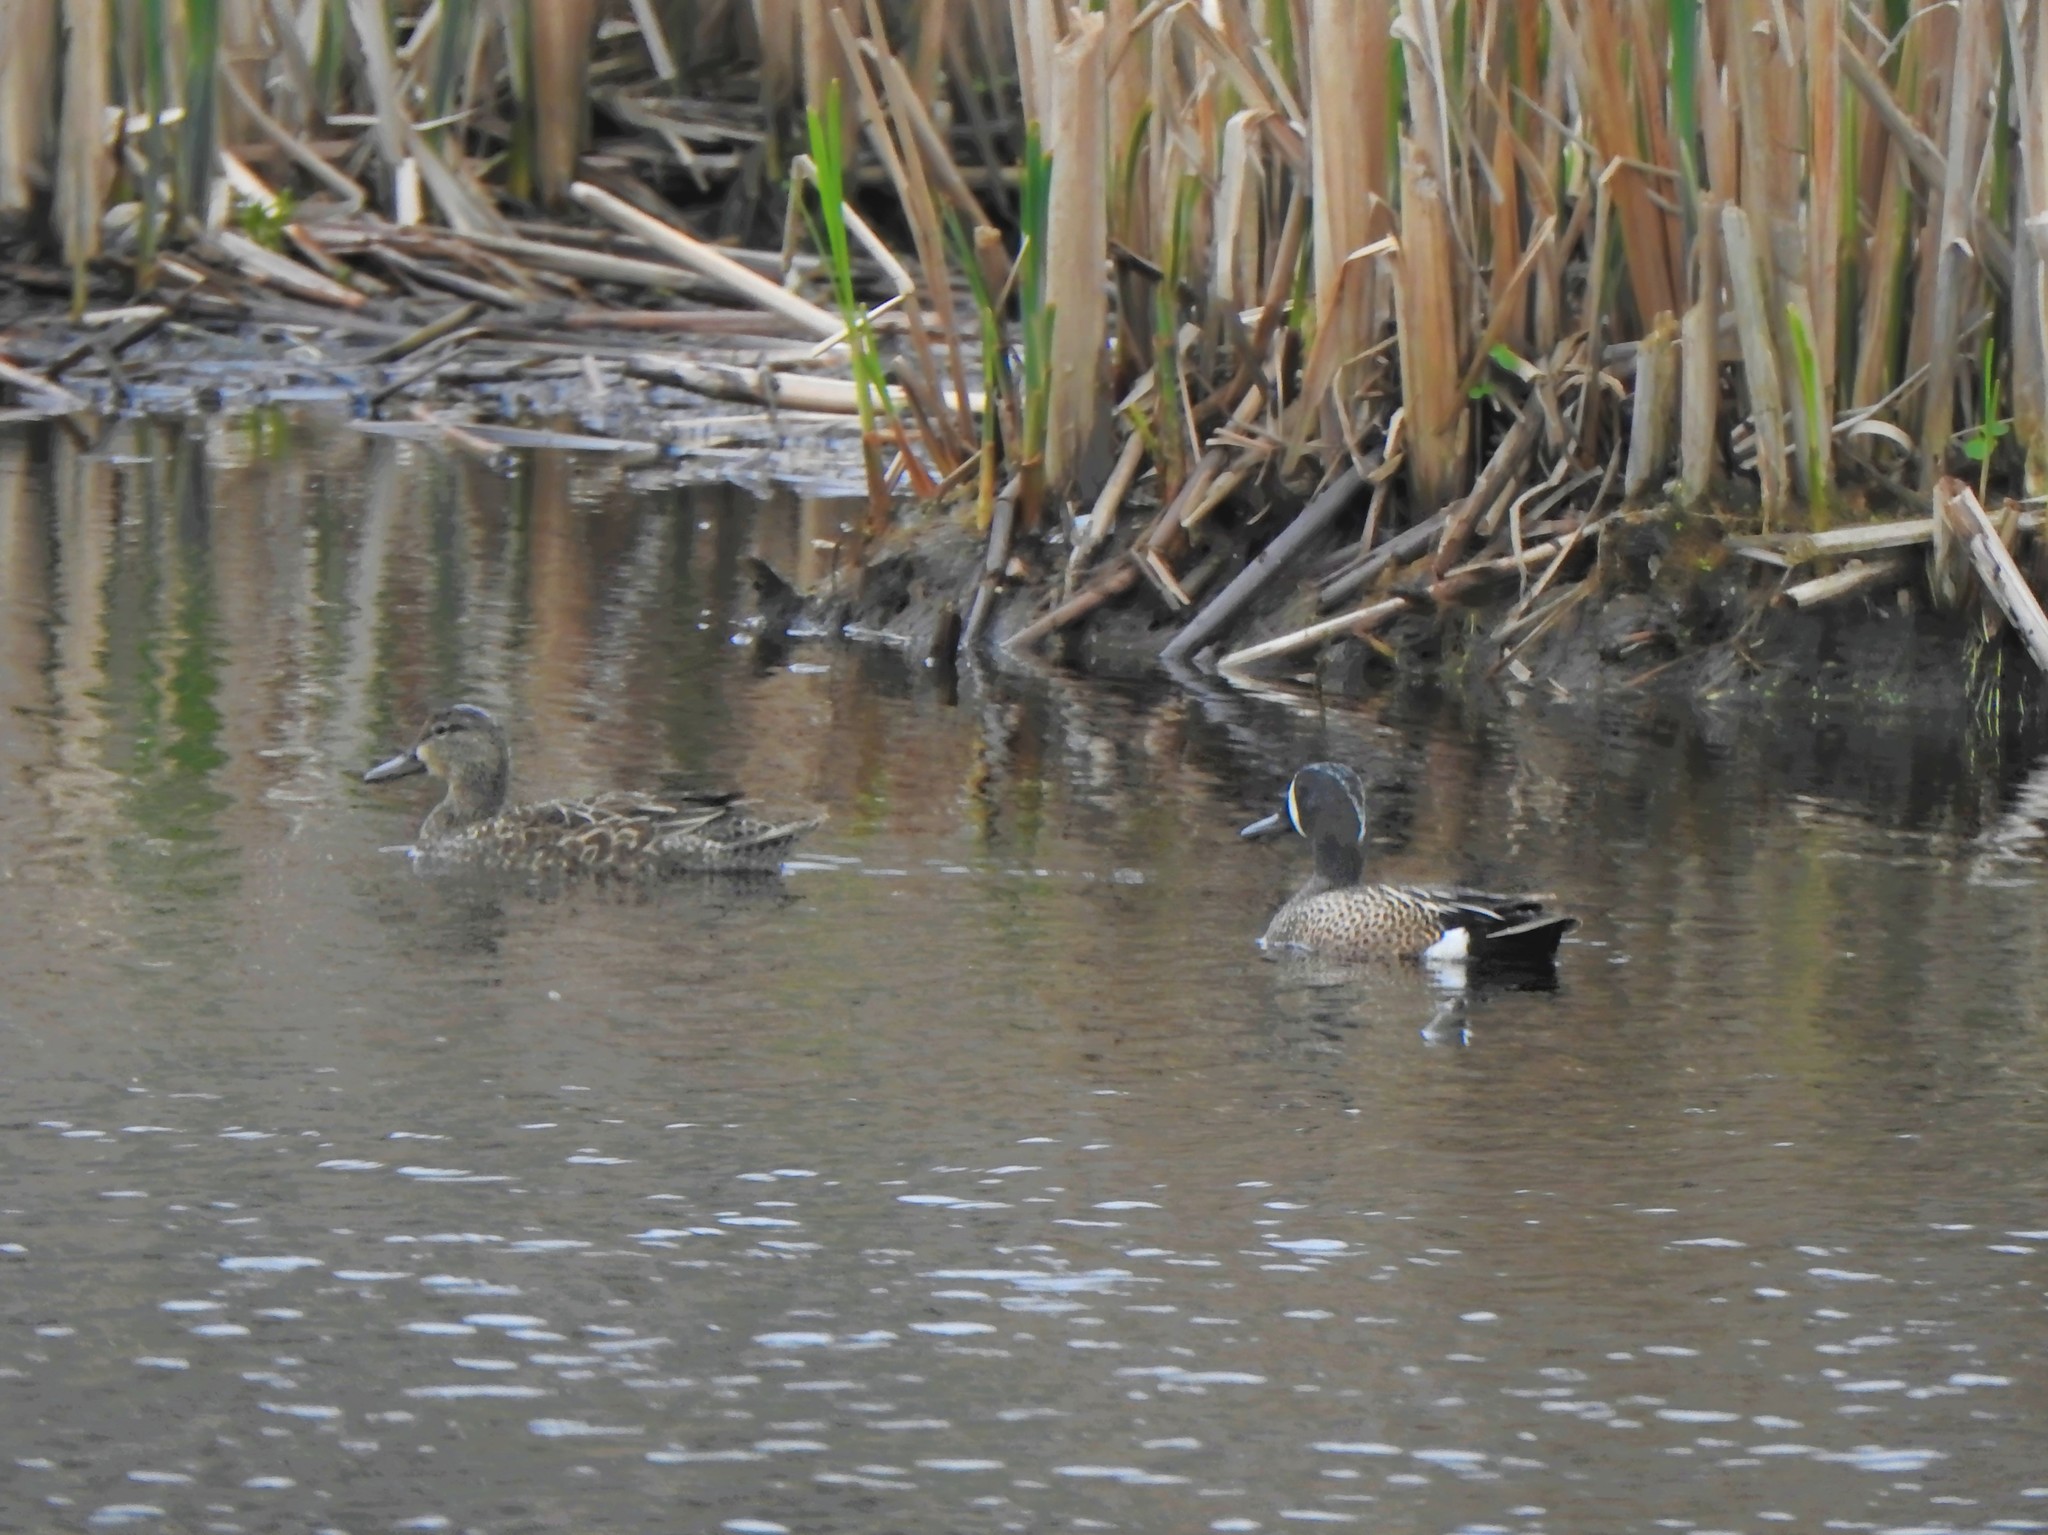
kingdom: Animalia
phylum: Chordata
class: Aves
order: Anseriformes
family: Anatidae
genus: Spatula
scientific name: Spatula discors
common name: Blue-winged teal
